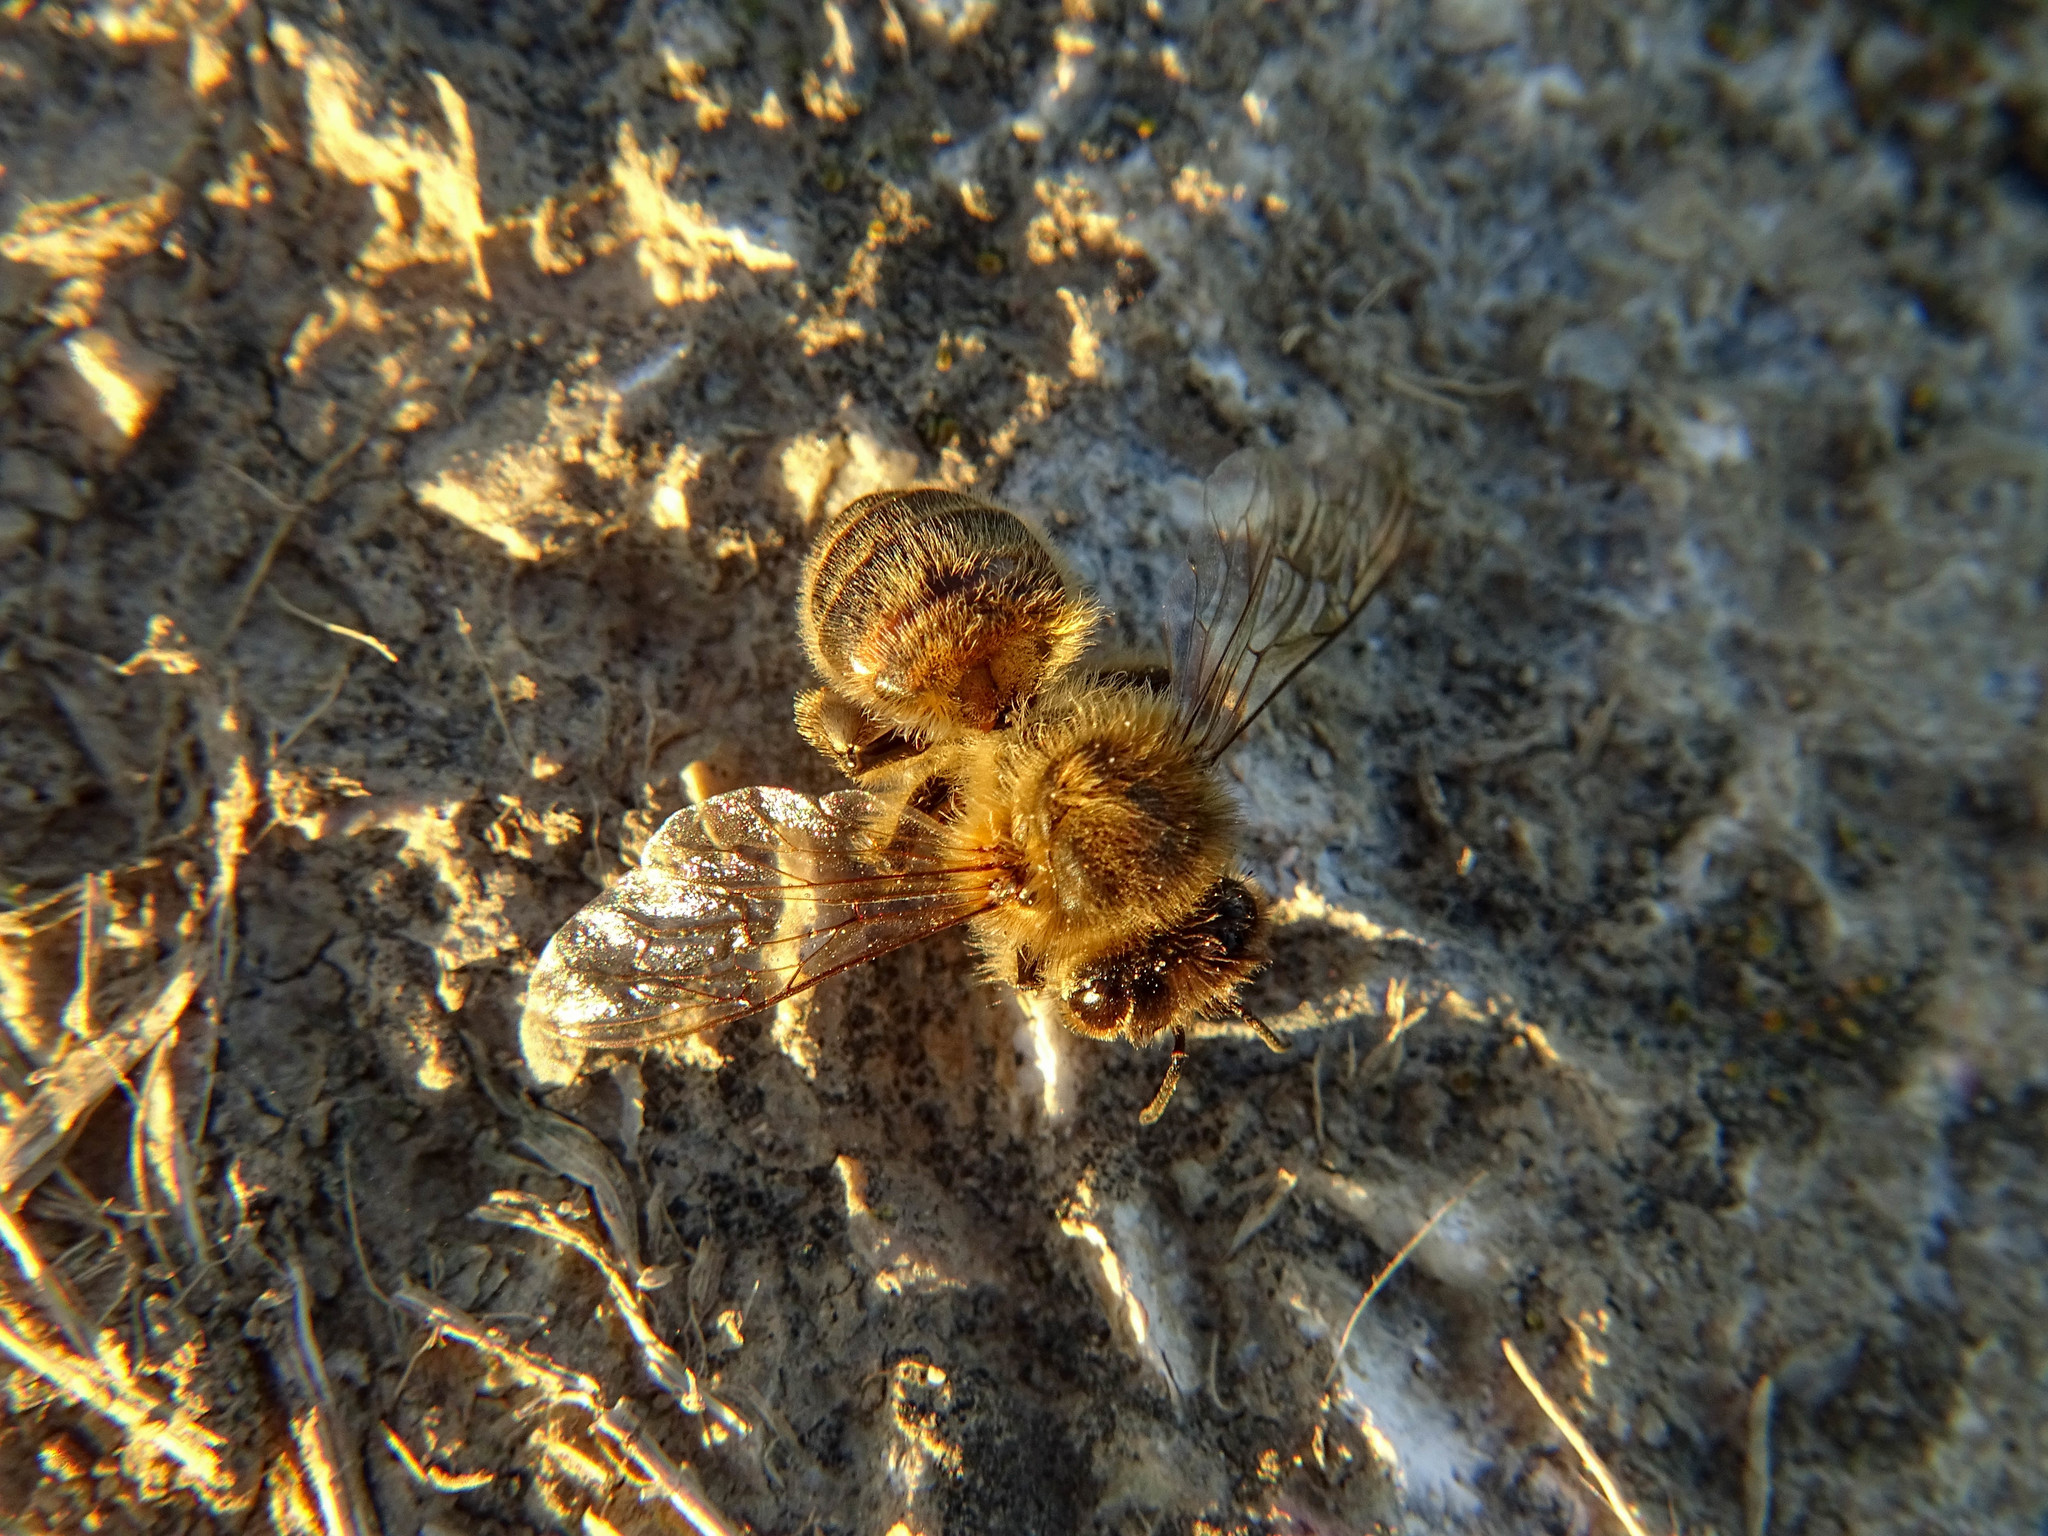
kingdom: Animalia
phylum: Arthropoda
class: Insecta
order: Hymenoptera
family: Apidae
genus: Apis
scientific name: Apis mellifera
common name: Honey bee
